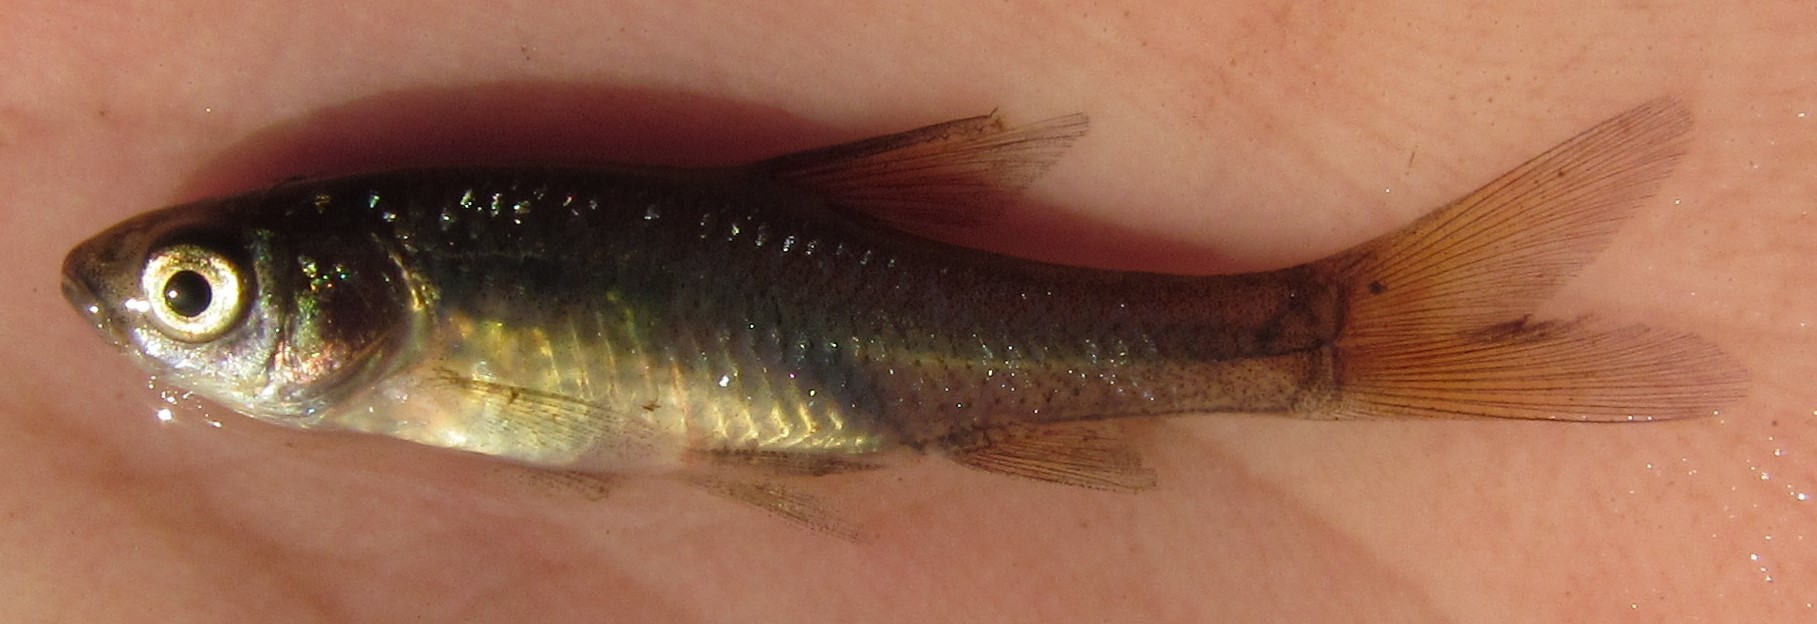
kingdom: Animalia
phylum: Chordata
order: Cypriniformes
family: Cyprinidae
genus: Enteromius
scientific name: Enteromius paludinosus
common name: Straightfin barb
